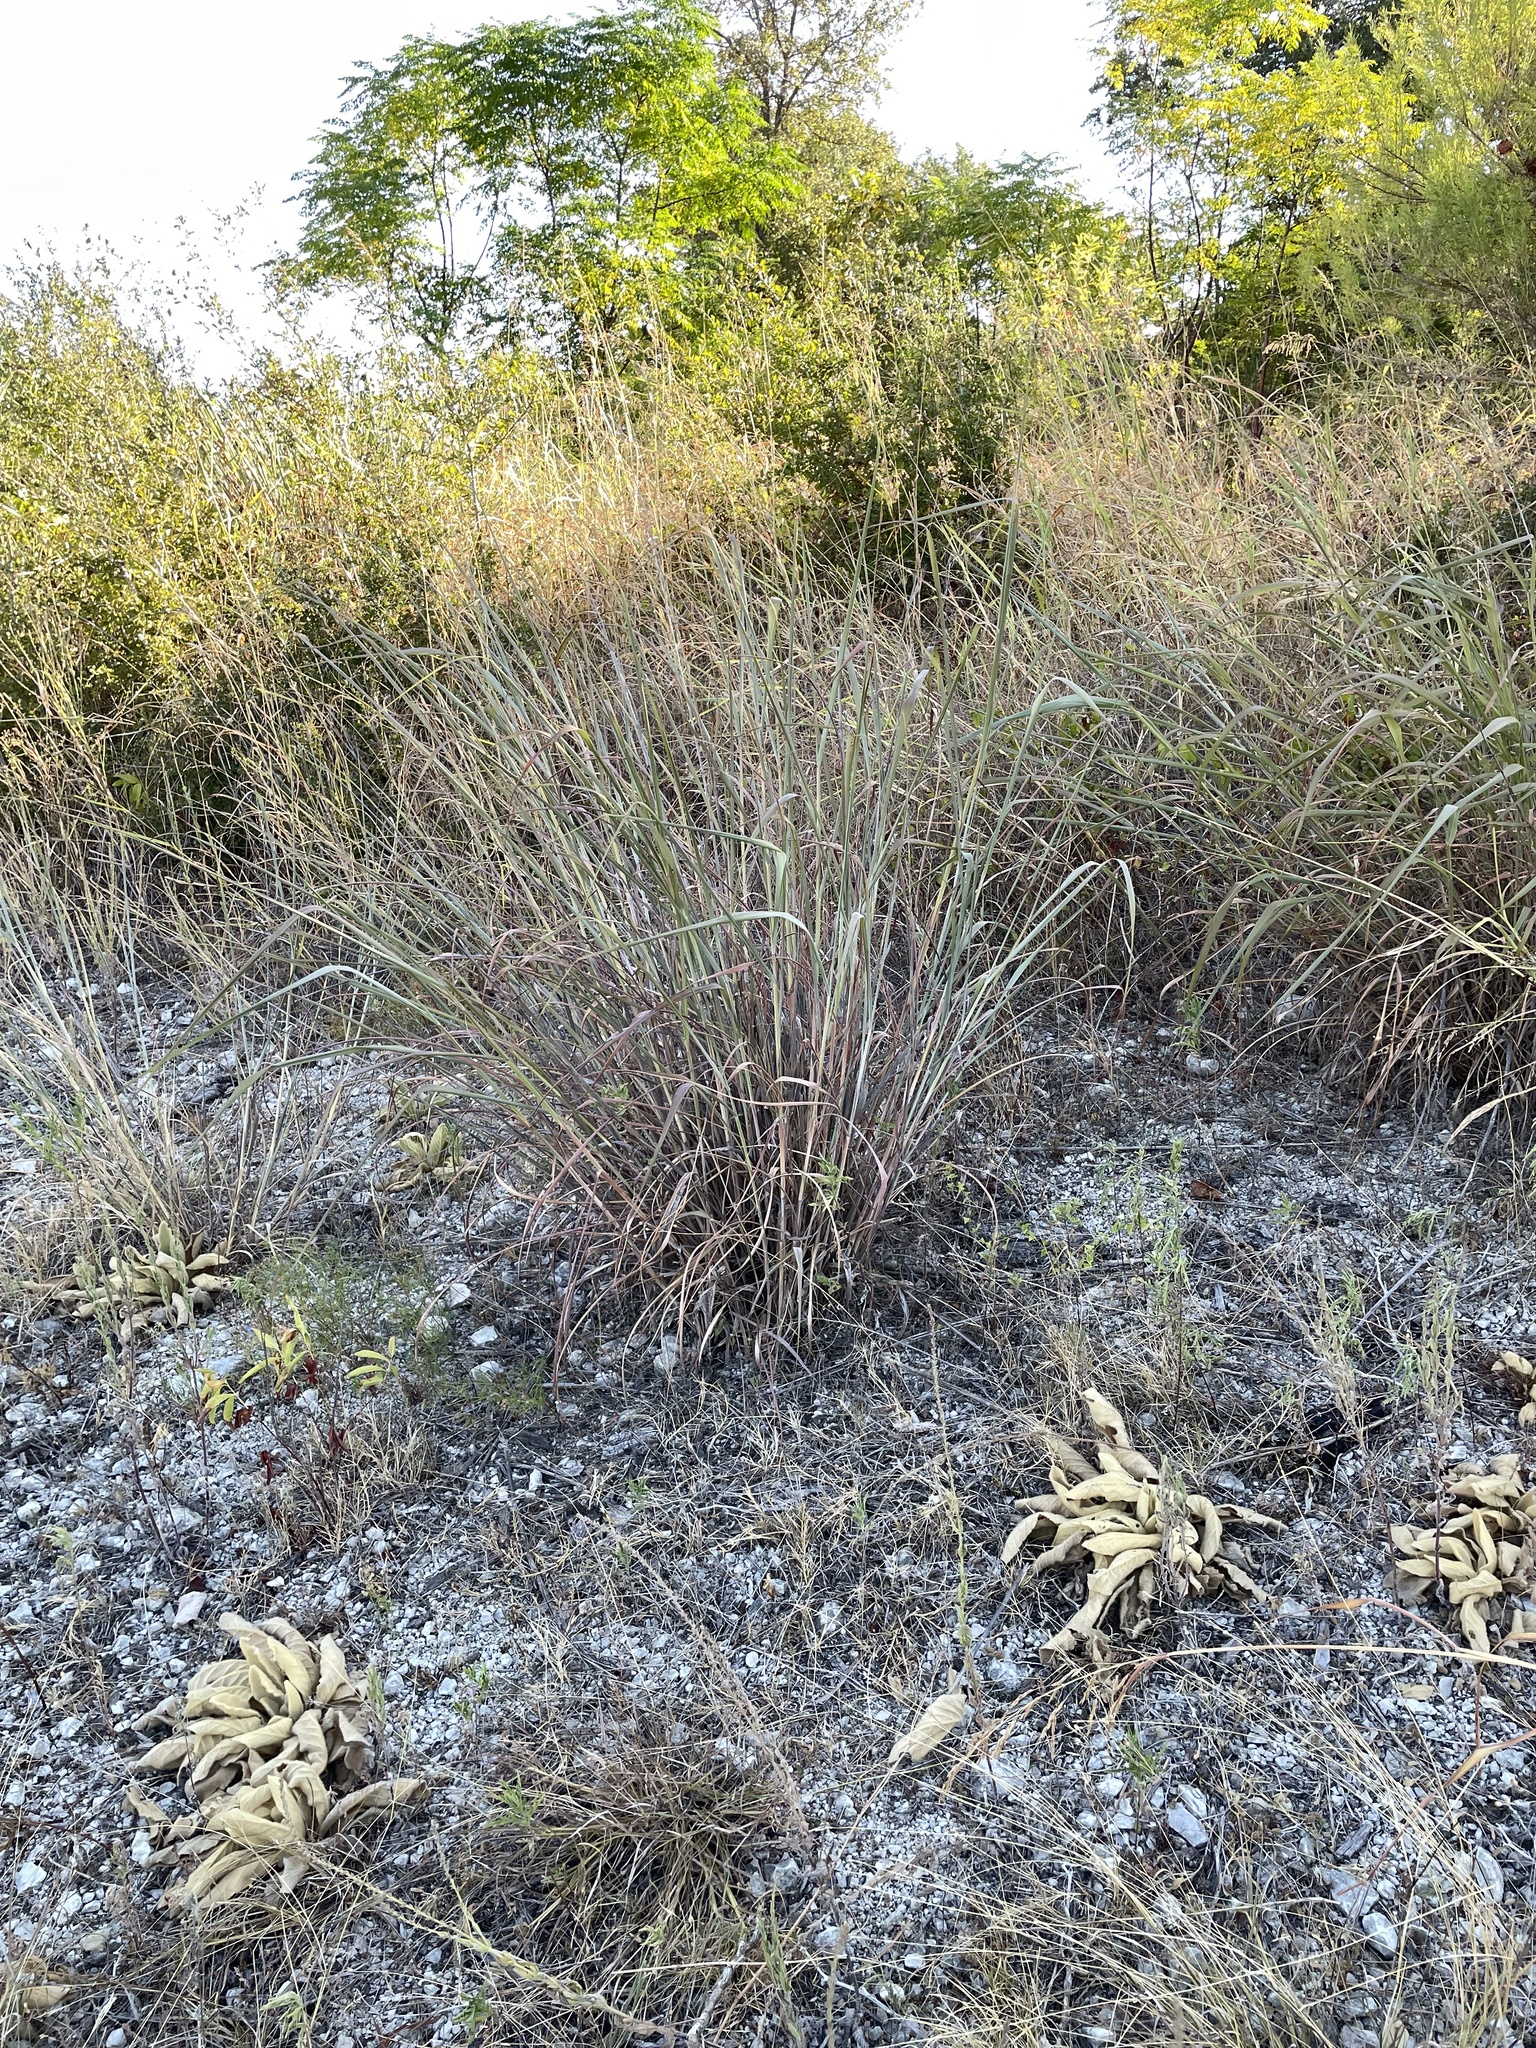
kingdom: Plantae
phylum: Tracheophyta
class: Liliopsida
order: Poales
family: Poaceae
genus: Panicum
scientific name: Panicum virgatum
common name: Switchgrass
